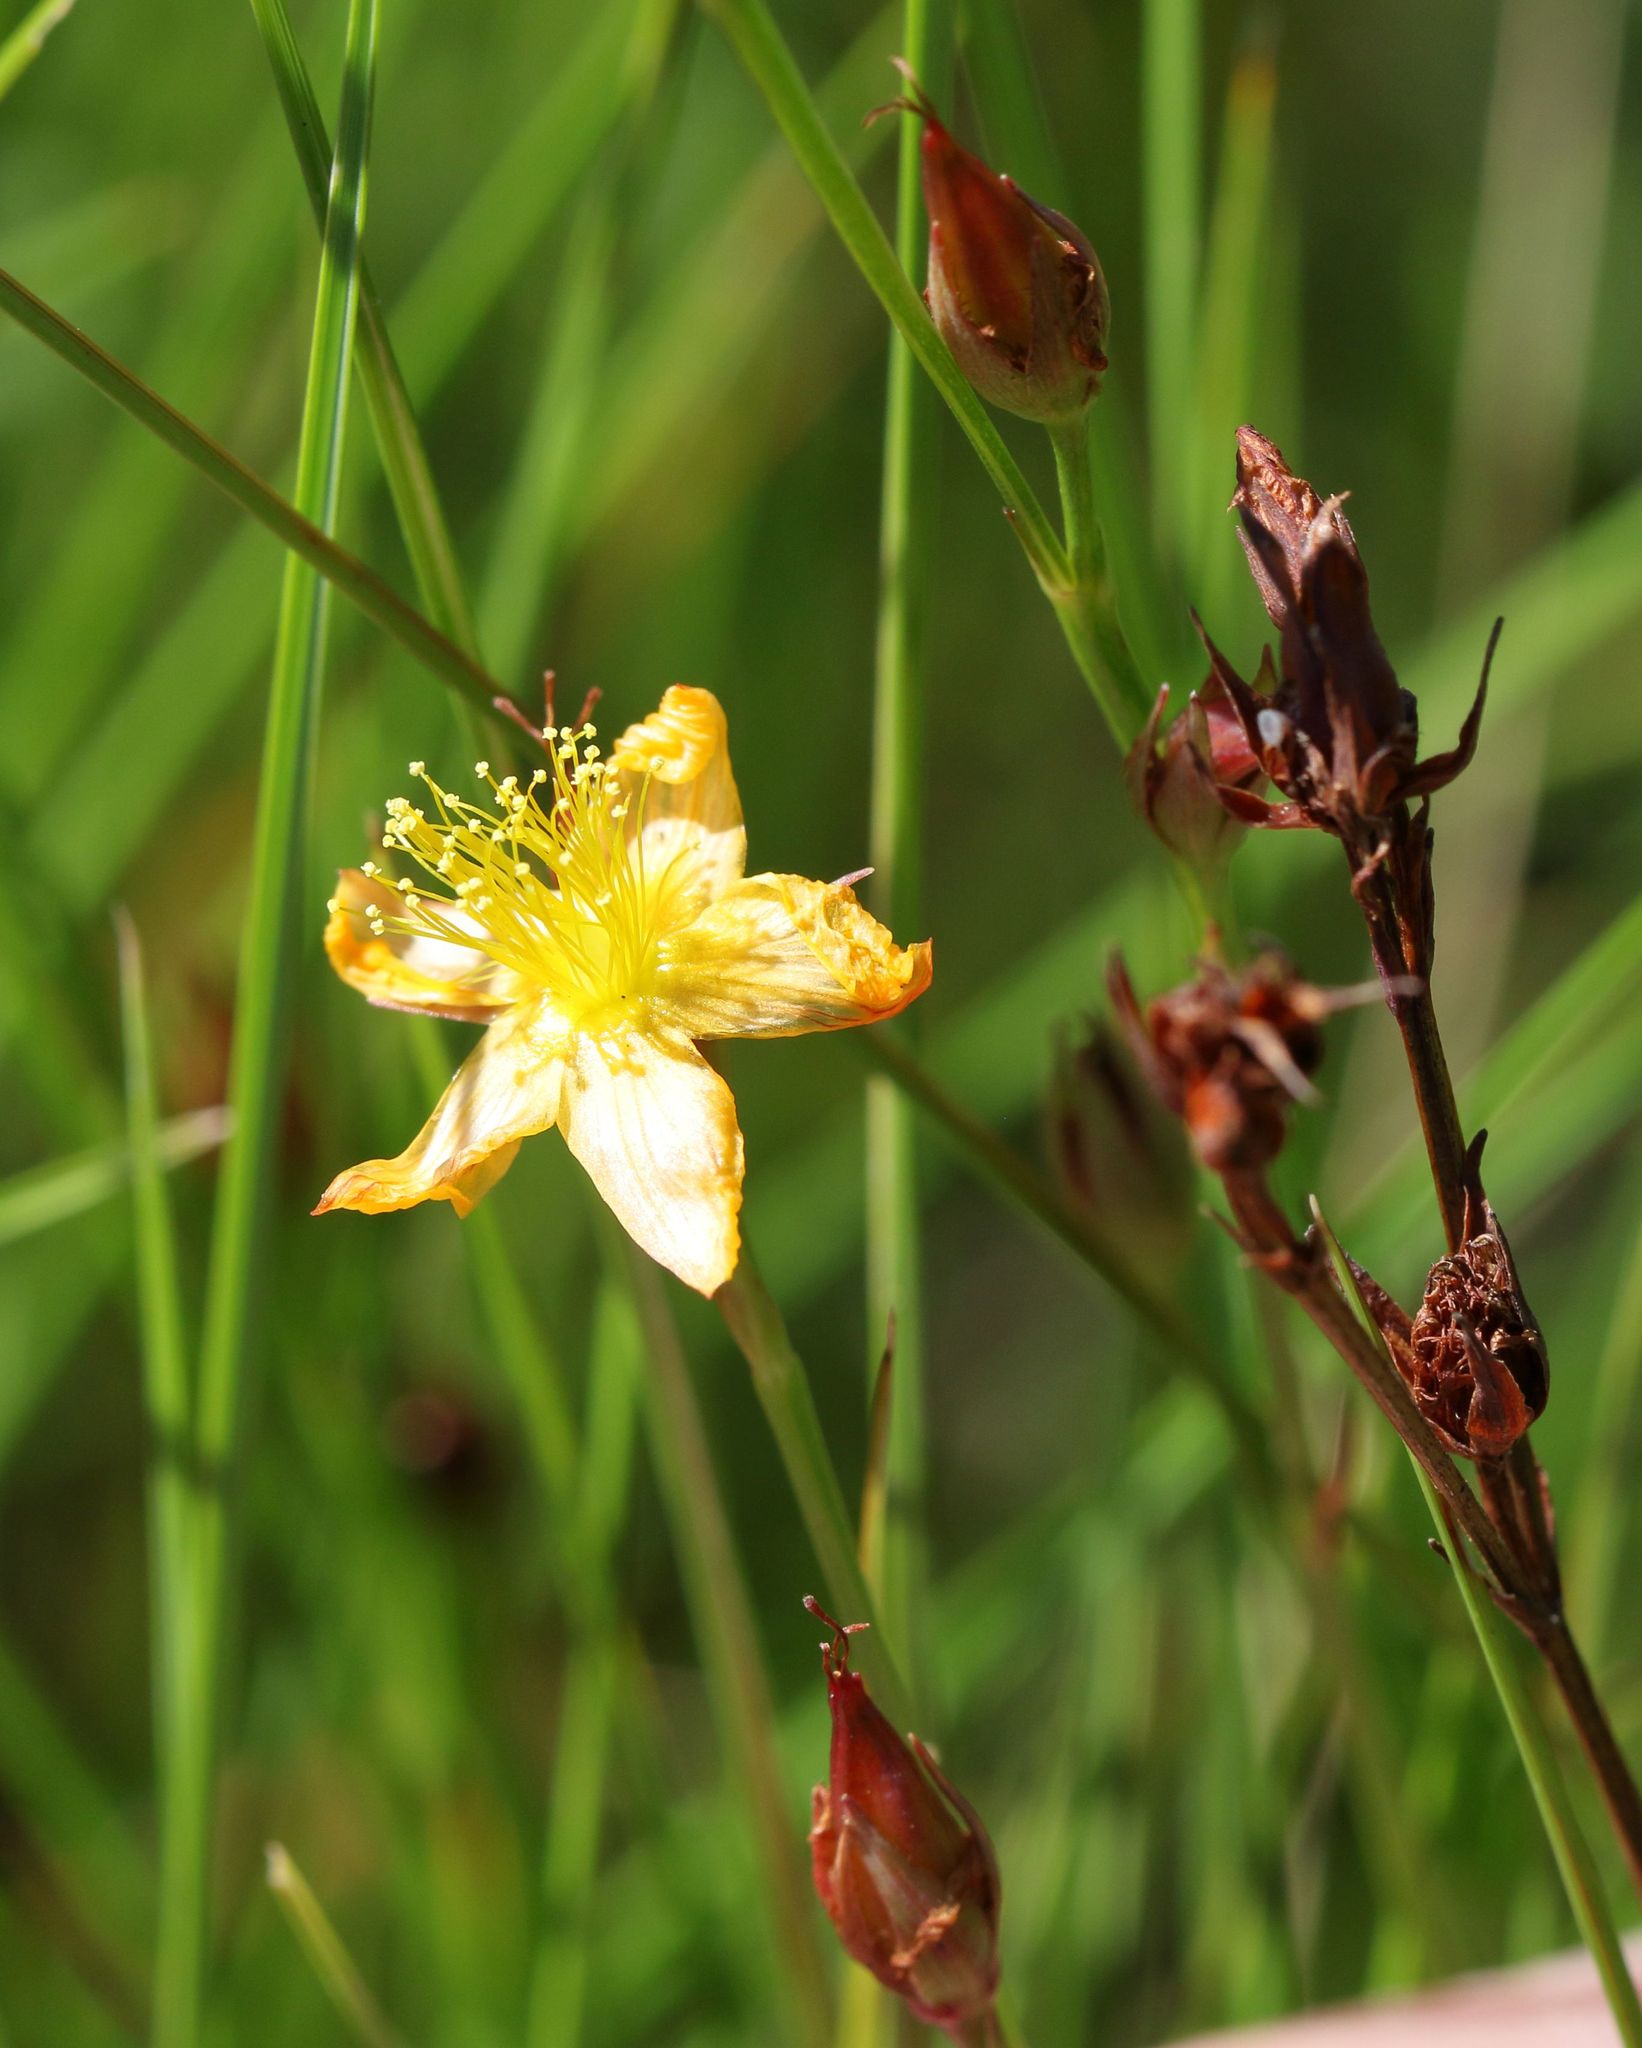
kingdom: Plantae
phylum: Tracheophyta
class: Magnoliopsida
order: Malpighiales
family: Hypericaceae
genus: Hypericum
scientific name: Hypericum lalandii
